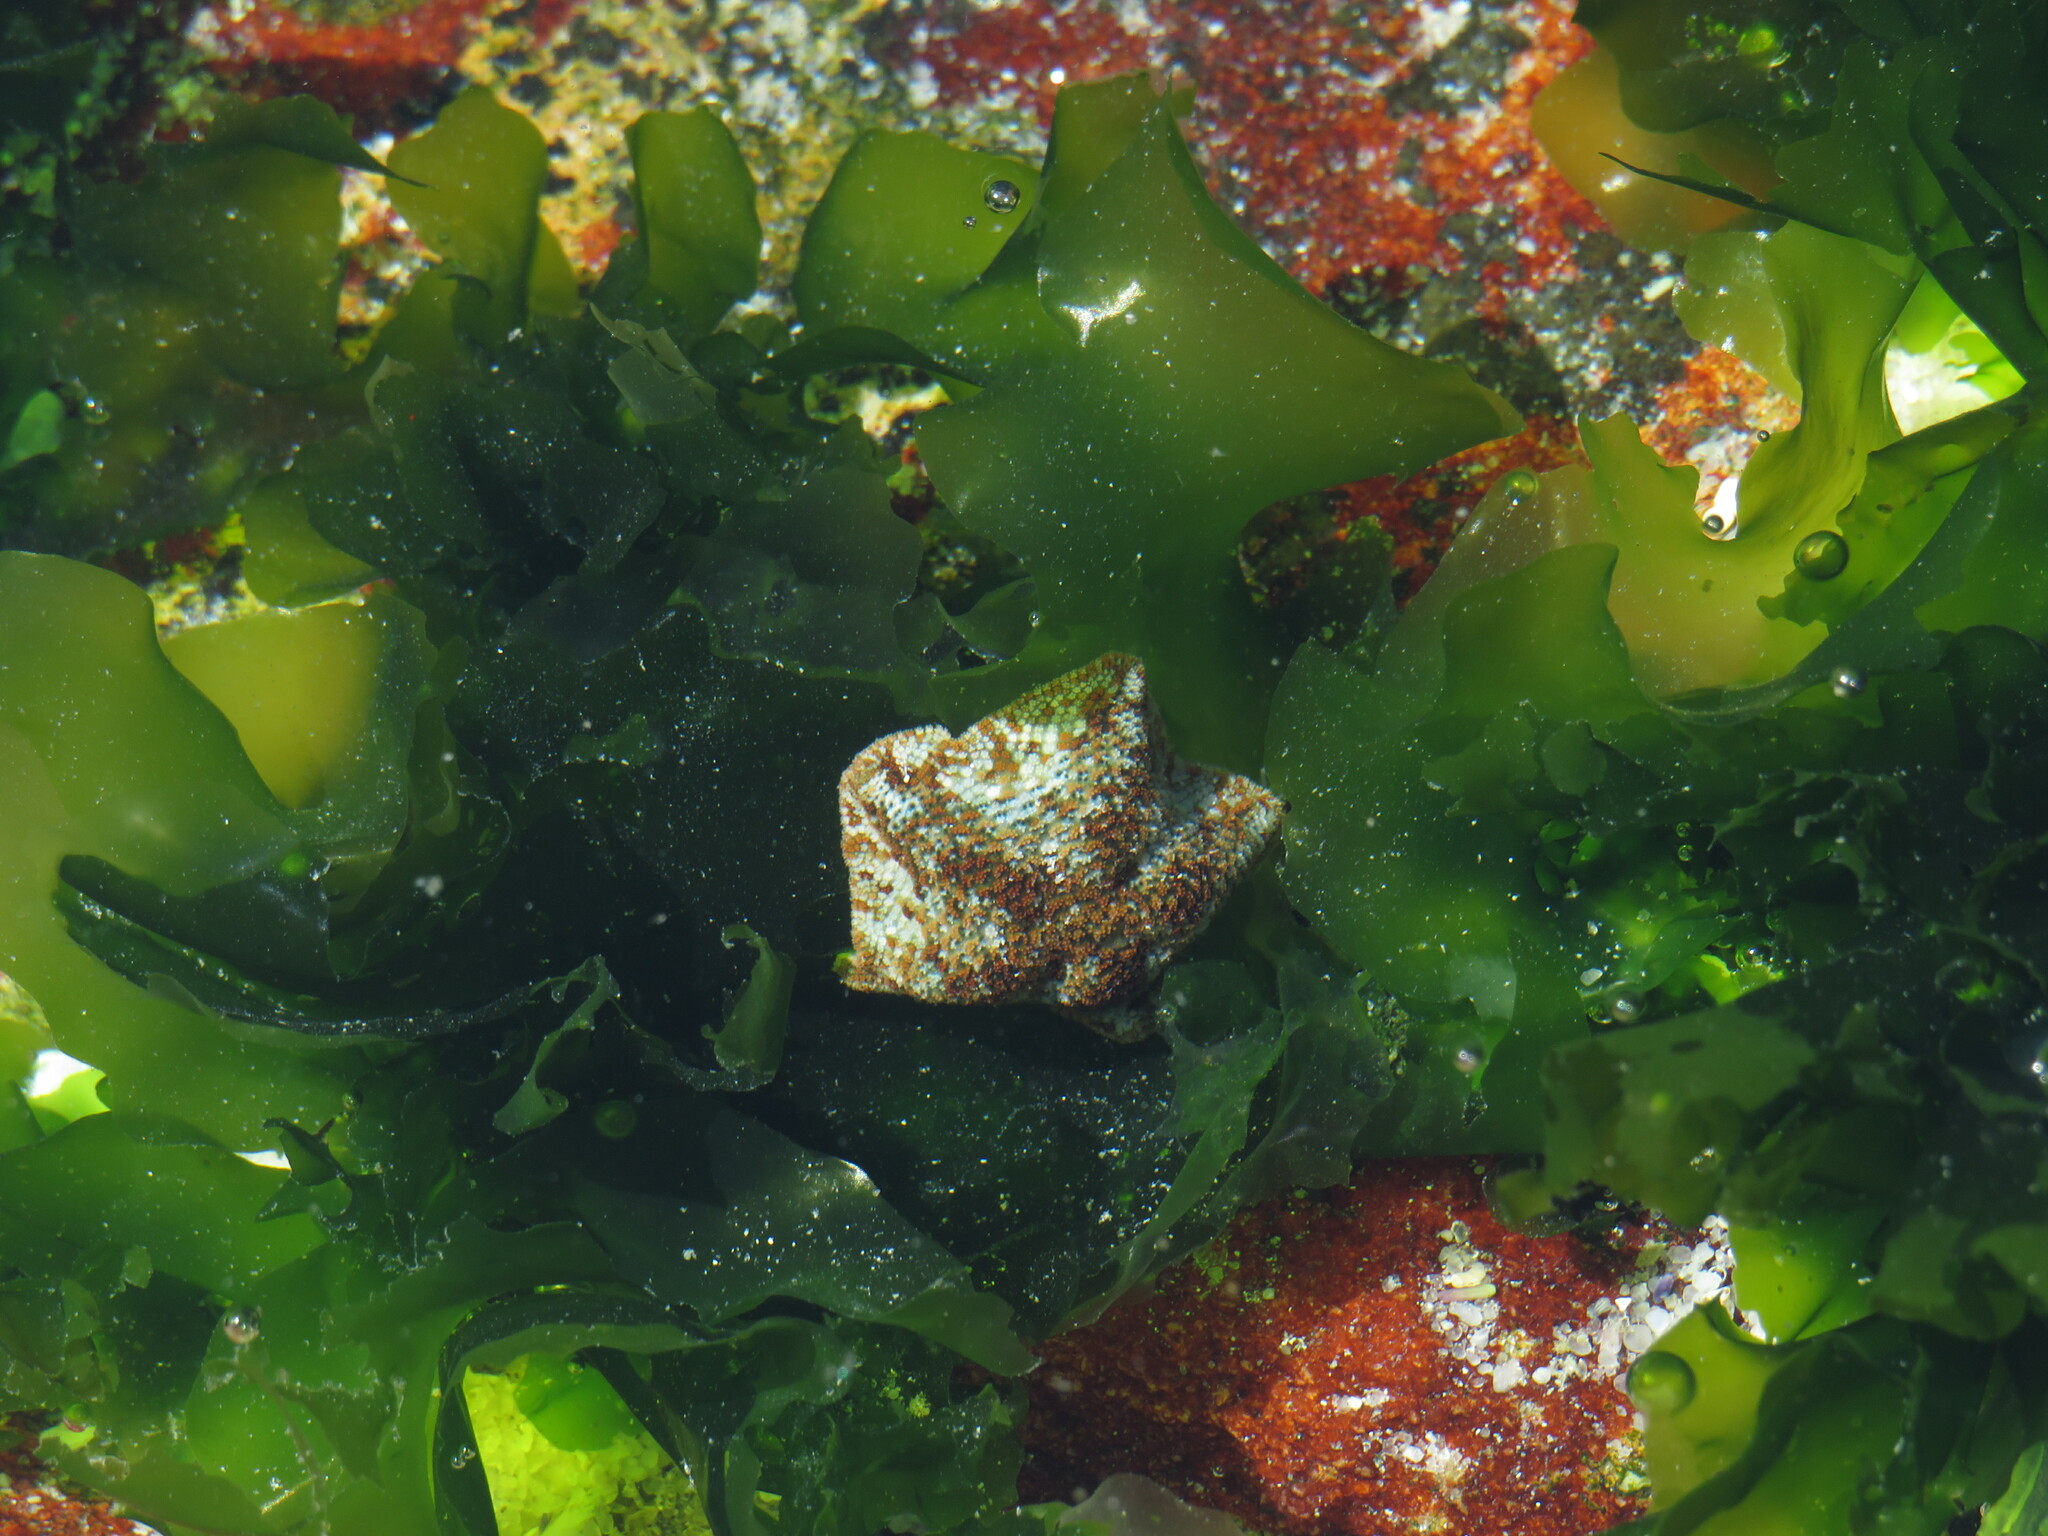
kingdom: Plantae
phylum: Chlorophyta
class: Ulvophyceae
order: Ulvales
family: Ulvaceae
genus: Ulva
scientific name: Ulva lactuca
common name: Sea lettuce
